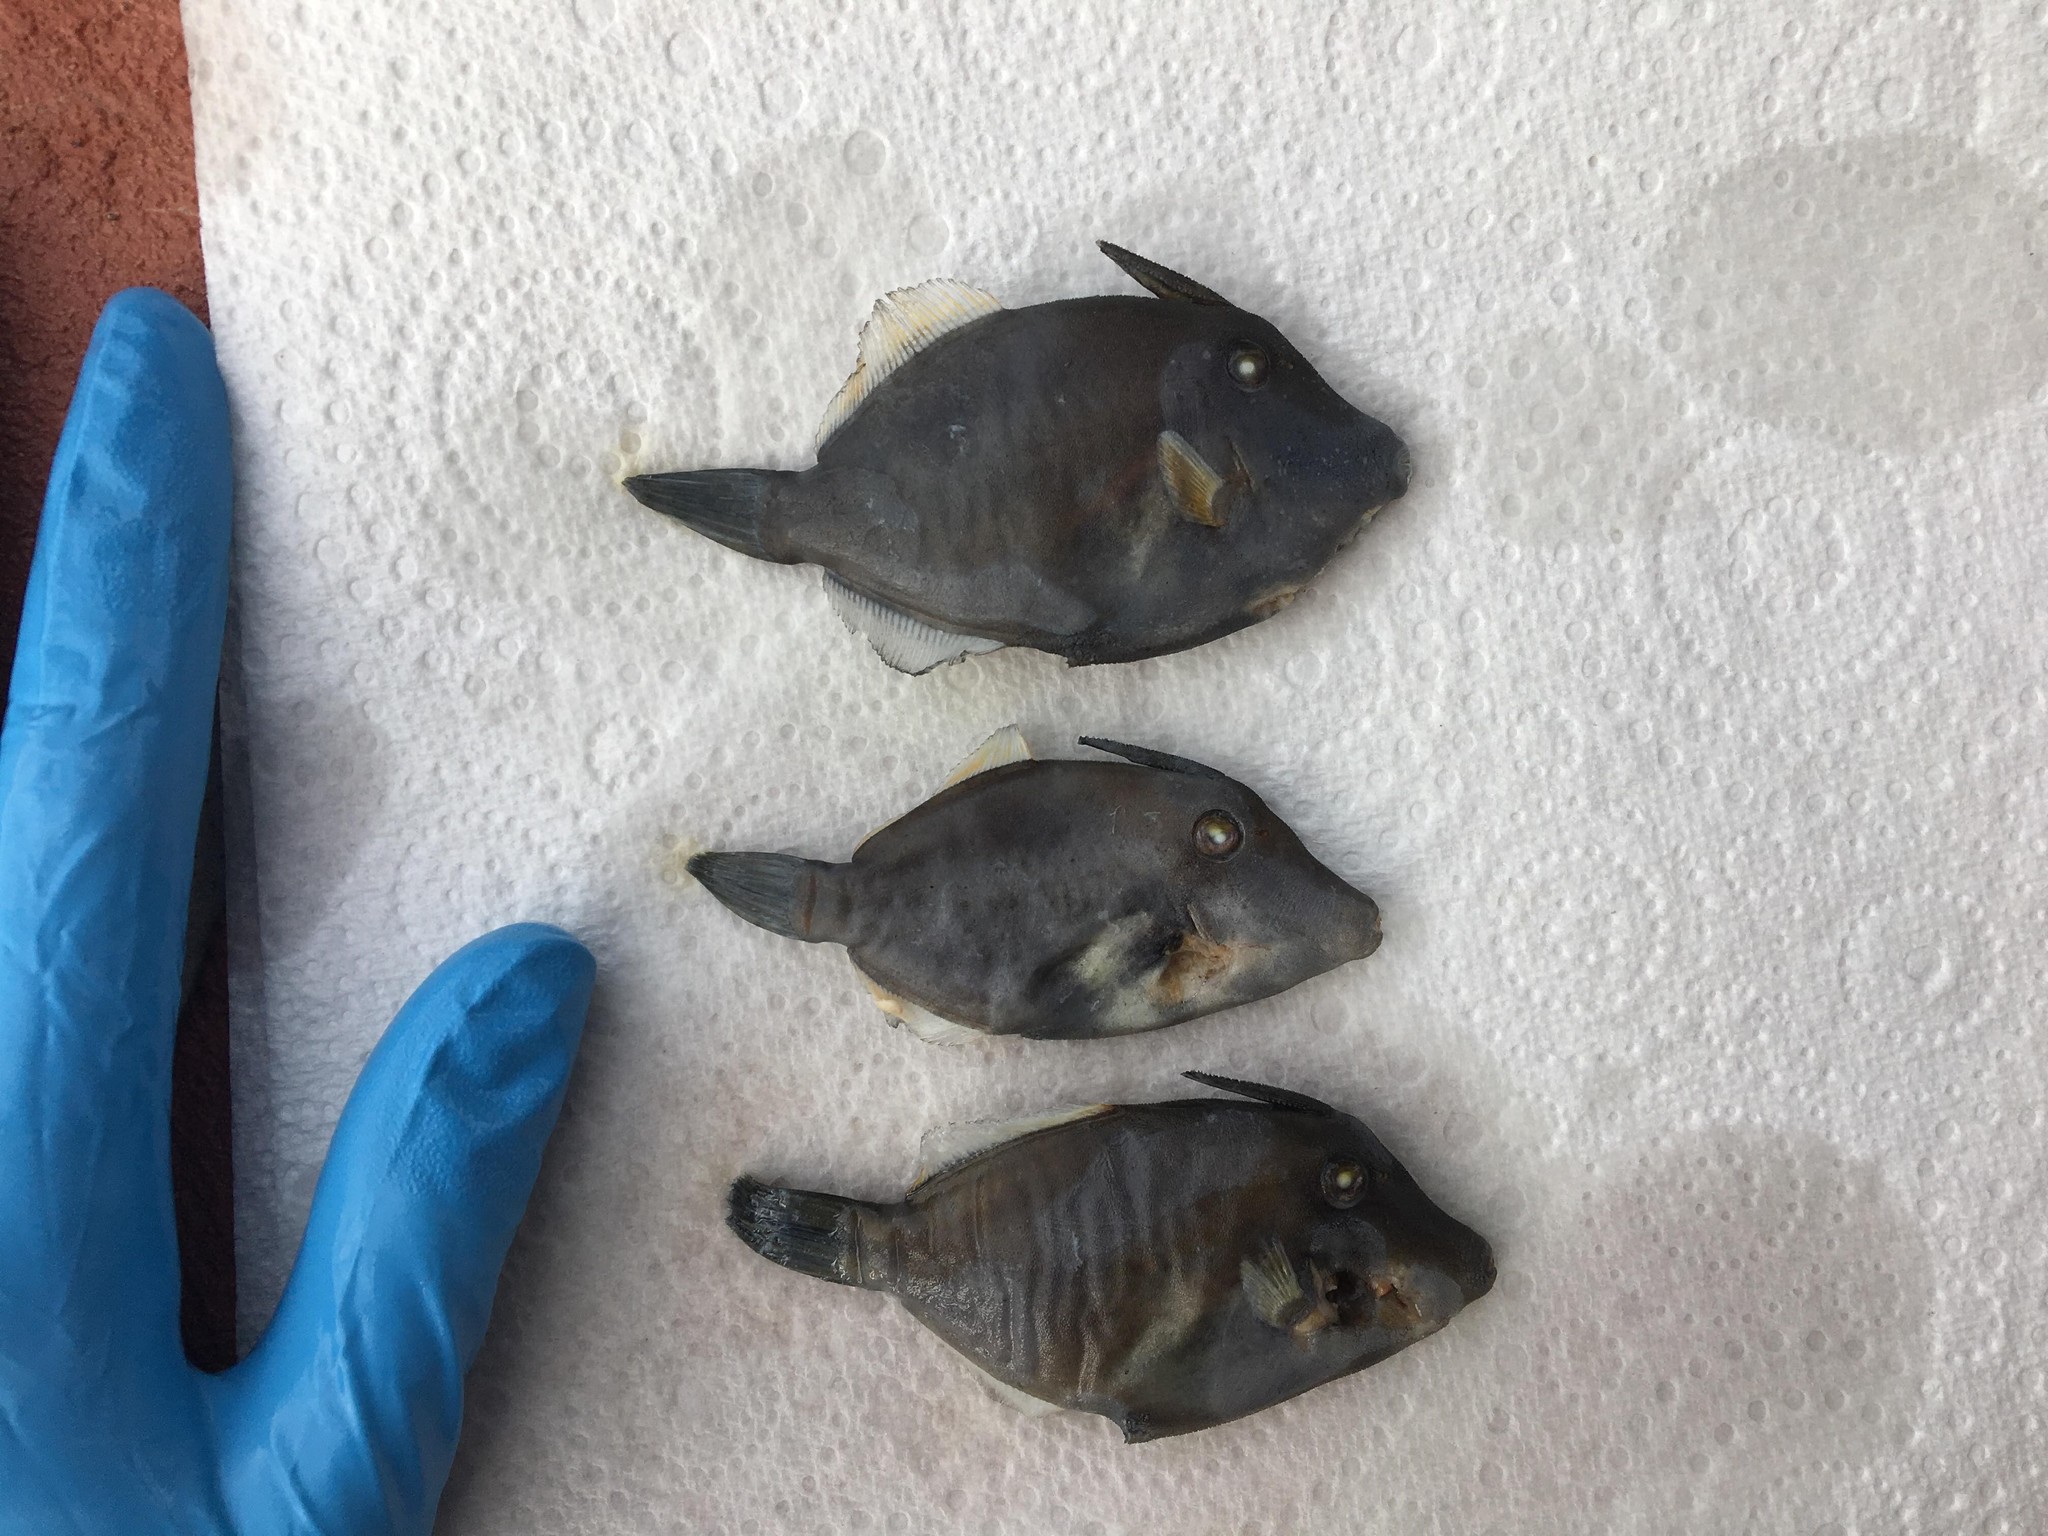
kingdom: Animalia
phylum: Chordata
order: Tetraodontiformes
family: Monacanthidae
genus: Cantherhines
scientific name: Cantherhines pardalis
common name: Honeycomb filefish
